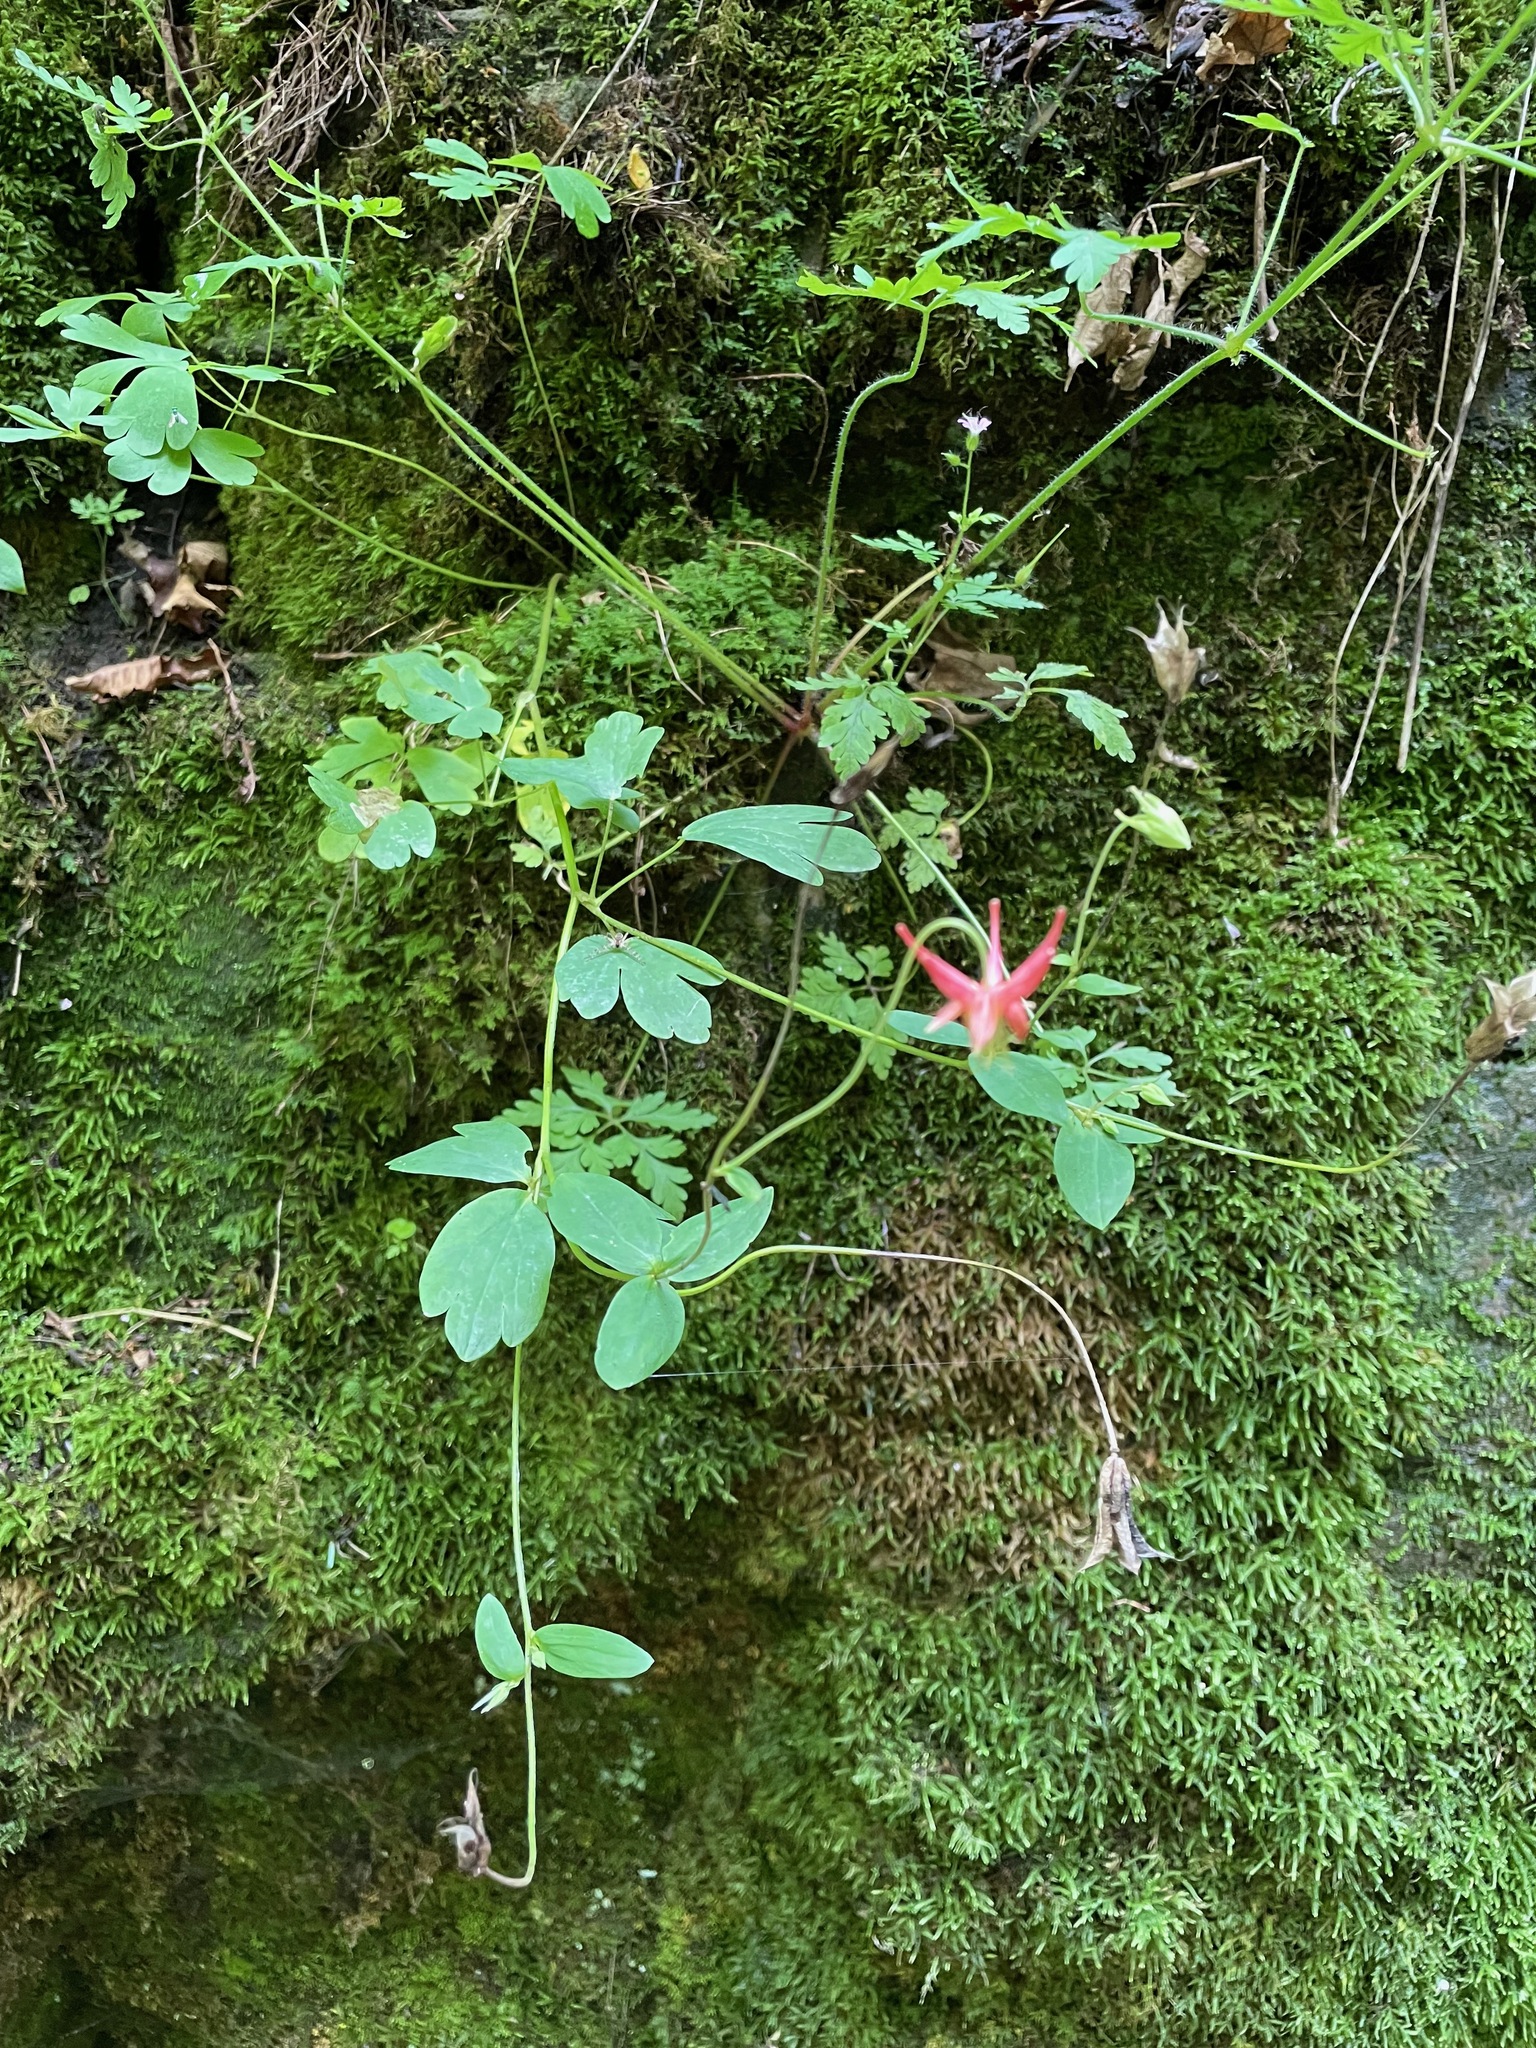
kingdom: Plantae
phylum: Tracheophyta
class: Magnoliopsida
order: Ranunculales
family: Ranunculaceae
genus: Aquilegia
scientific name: Aquilegia canadensis
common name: American columbine
